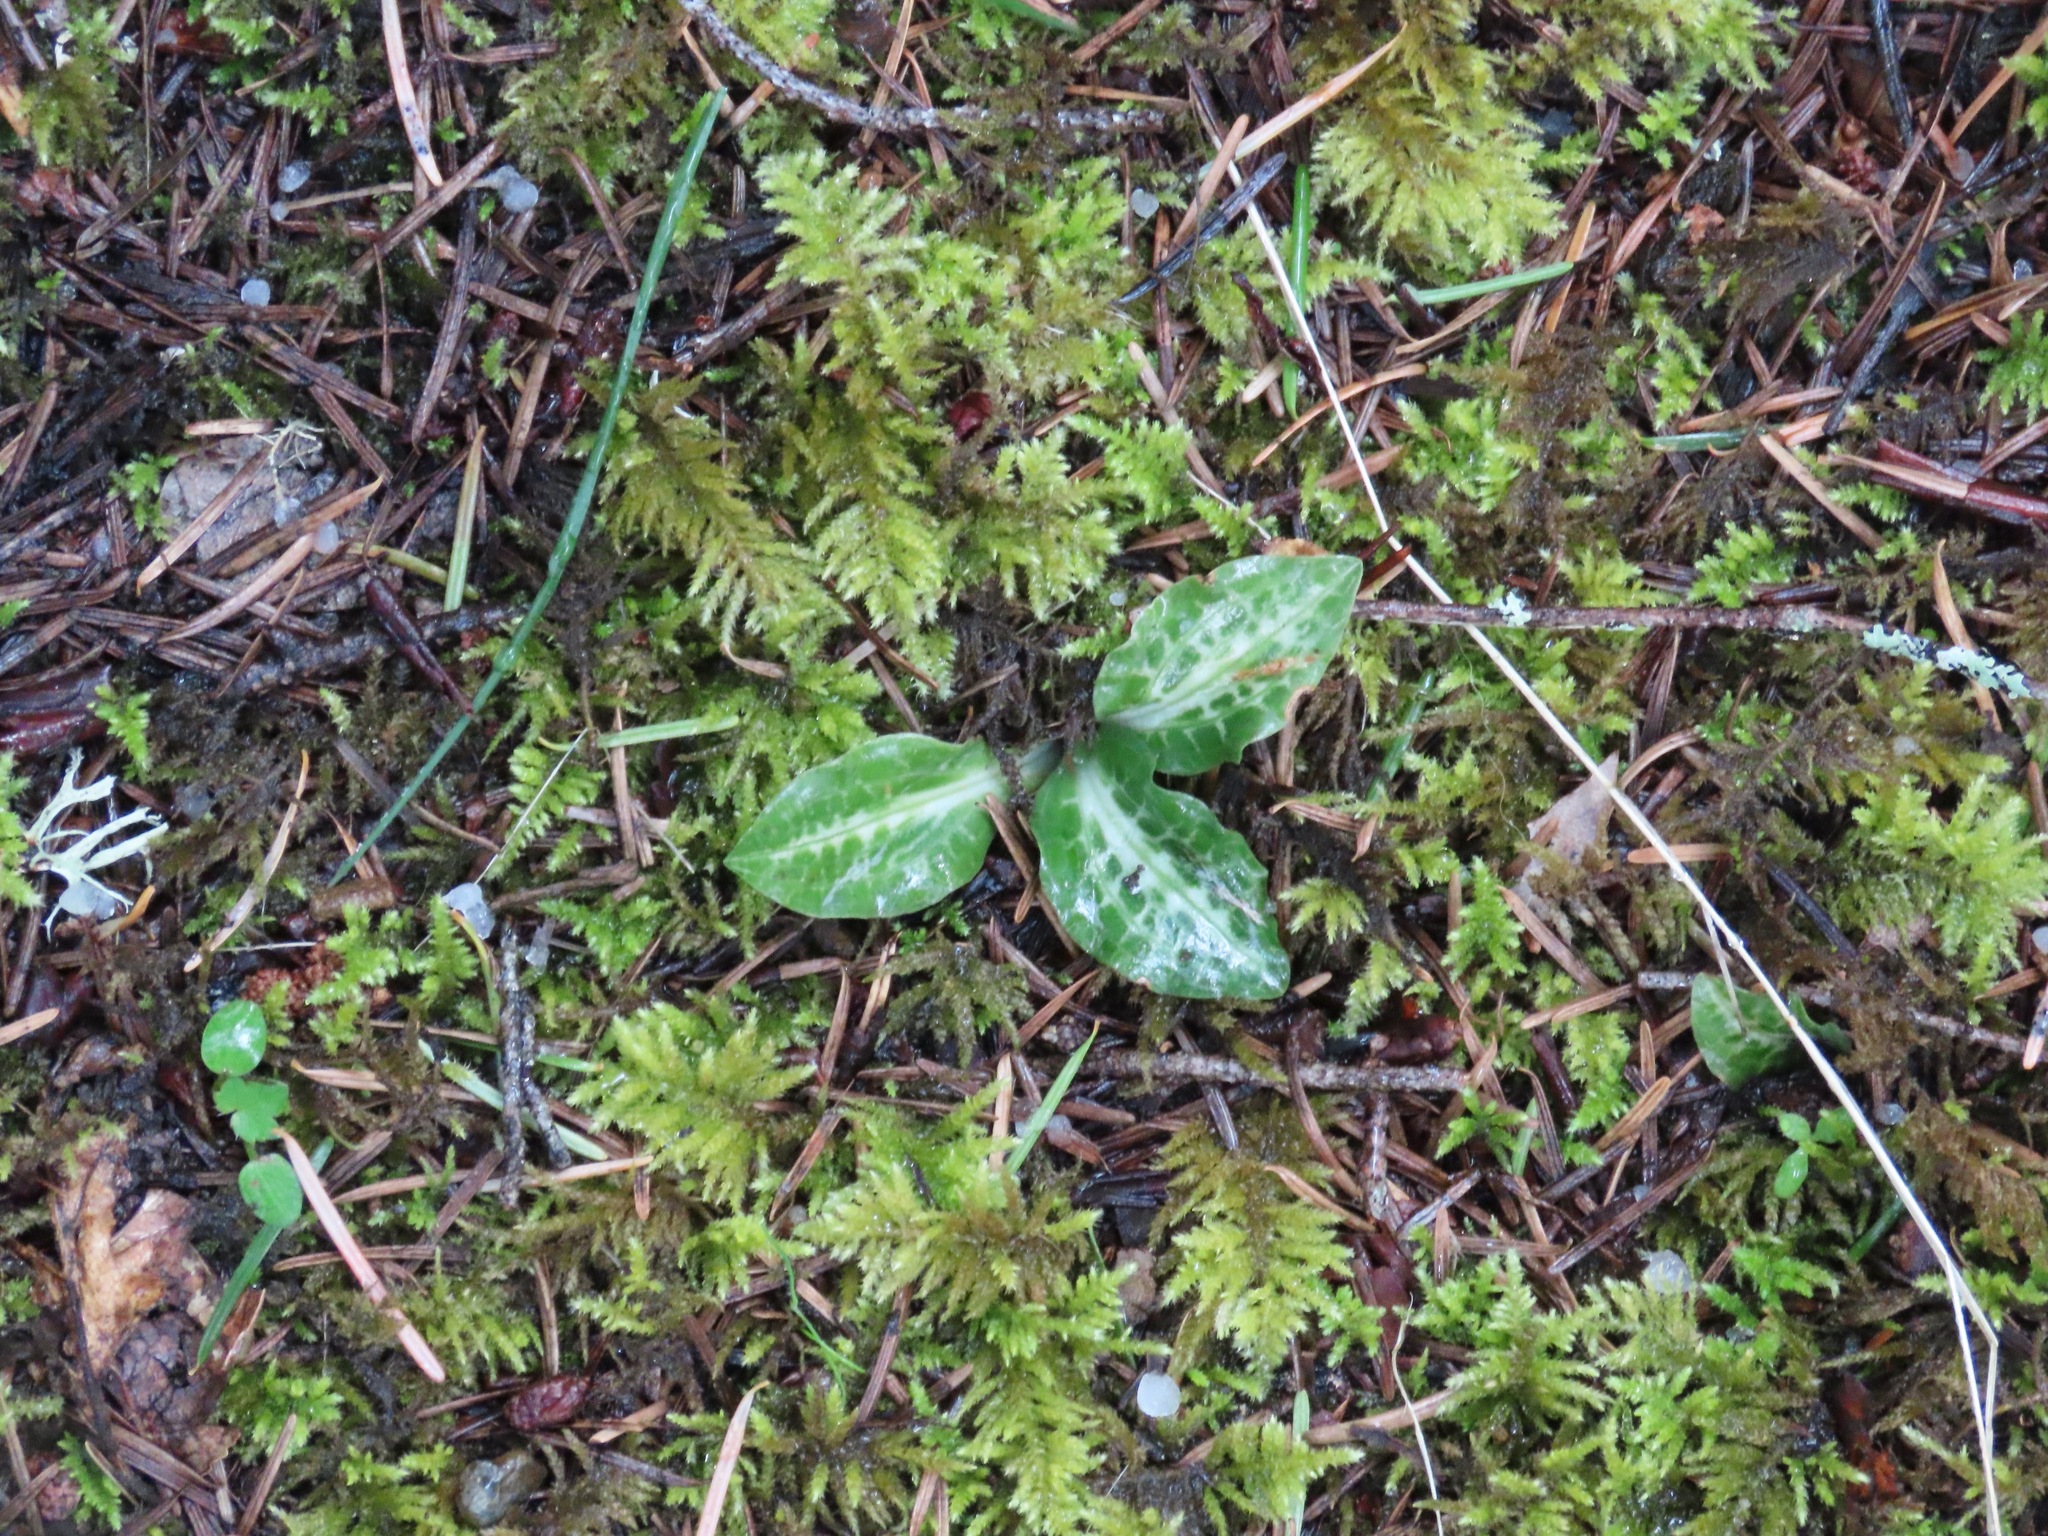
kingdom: Plantae
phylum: Tracheophyta
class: Liliopsida
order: Asparagales
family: Orchidaceae
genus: Goodyera
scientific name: Goodyera oblongifolia
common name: Giant rattlesnake-plantain
